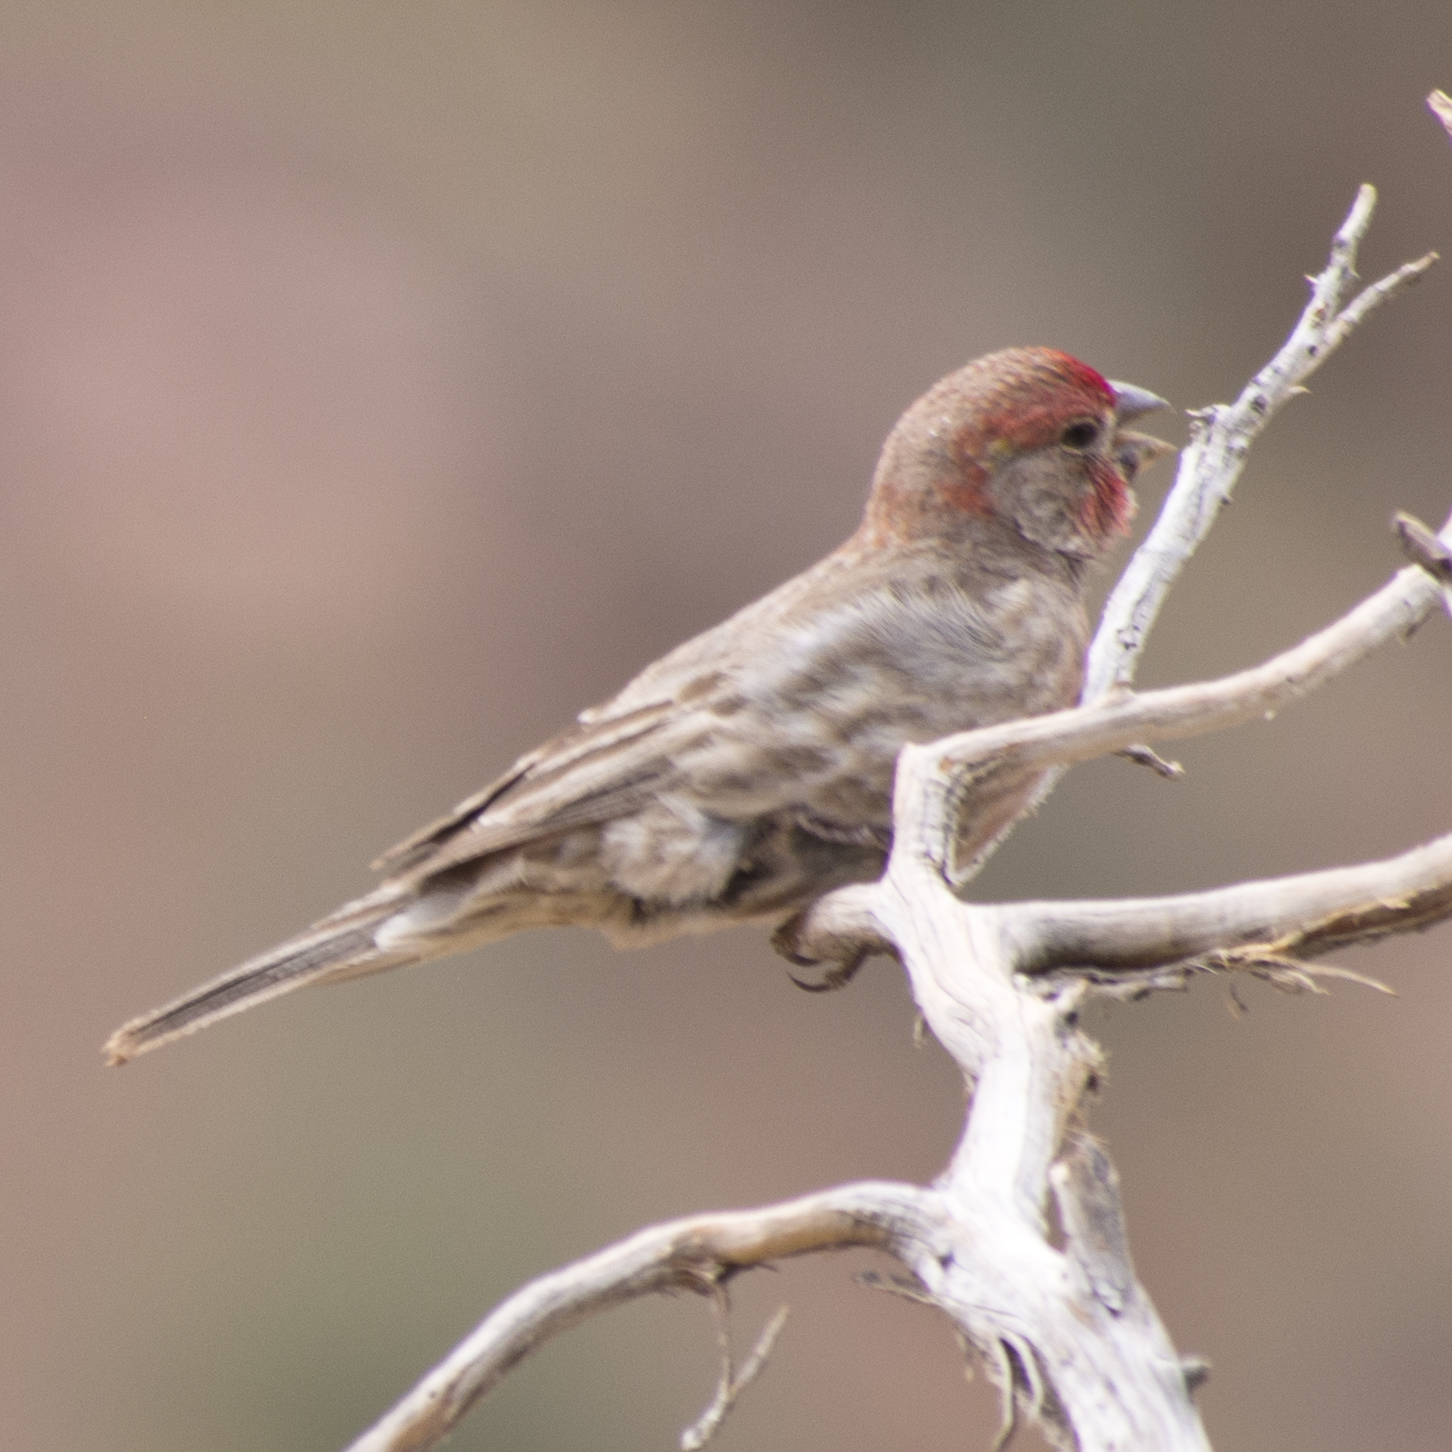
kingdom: Animalia
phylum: Chordata
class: Aves
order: Passeriformes
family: Fringillidae
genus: Haemorhous
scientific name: Haemorhous mexicanus
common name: House finch
